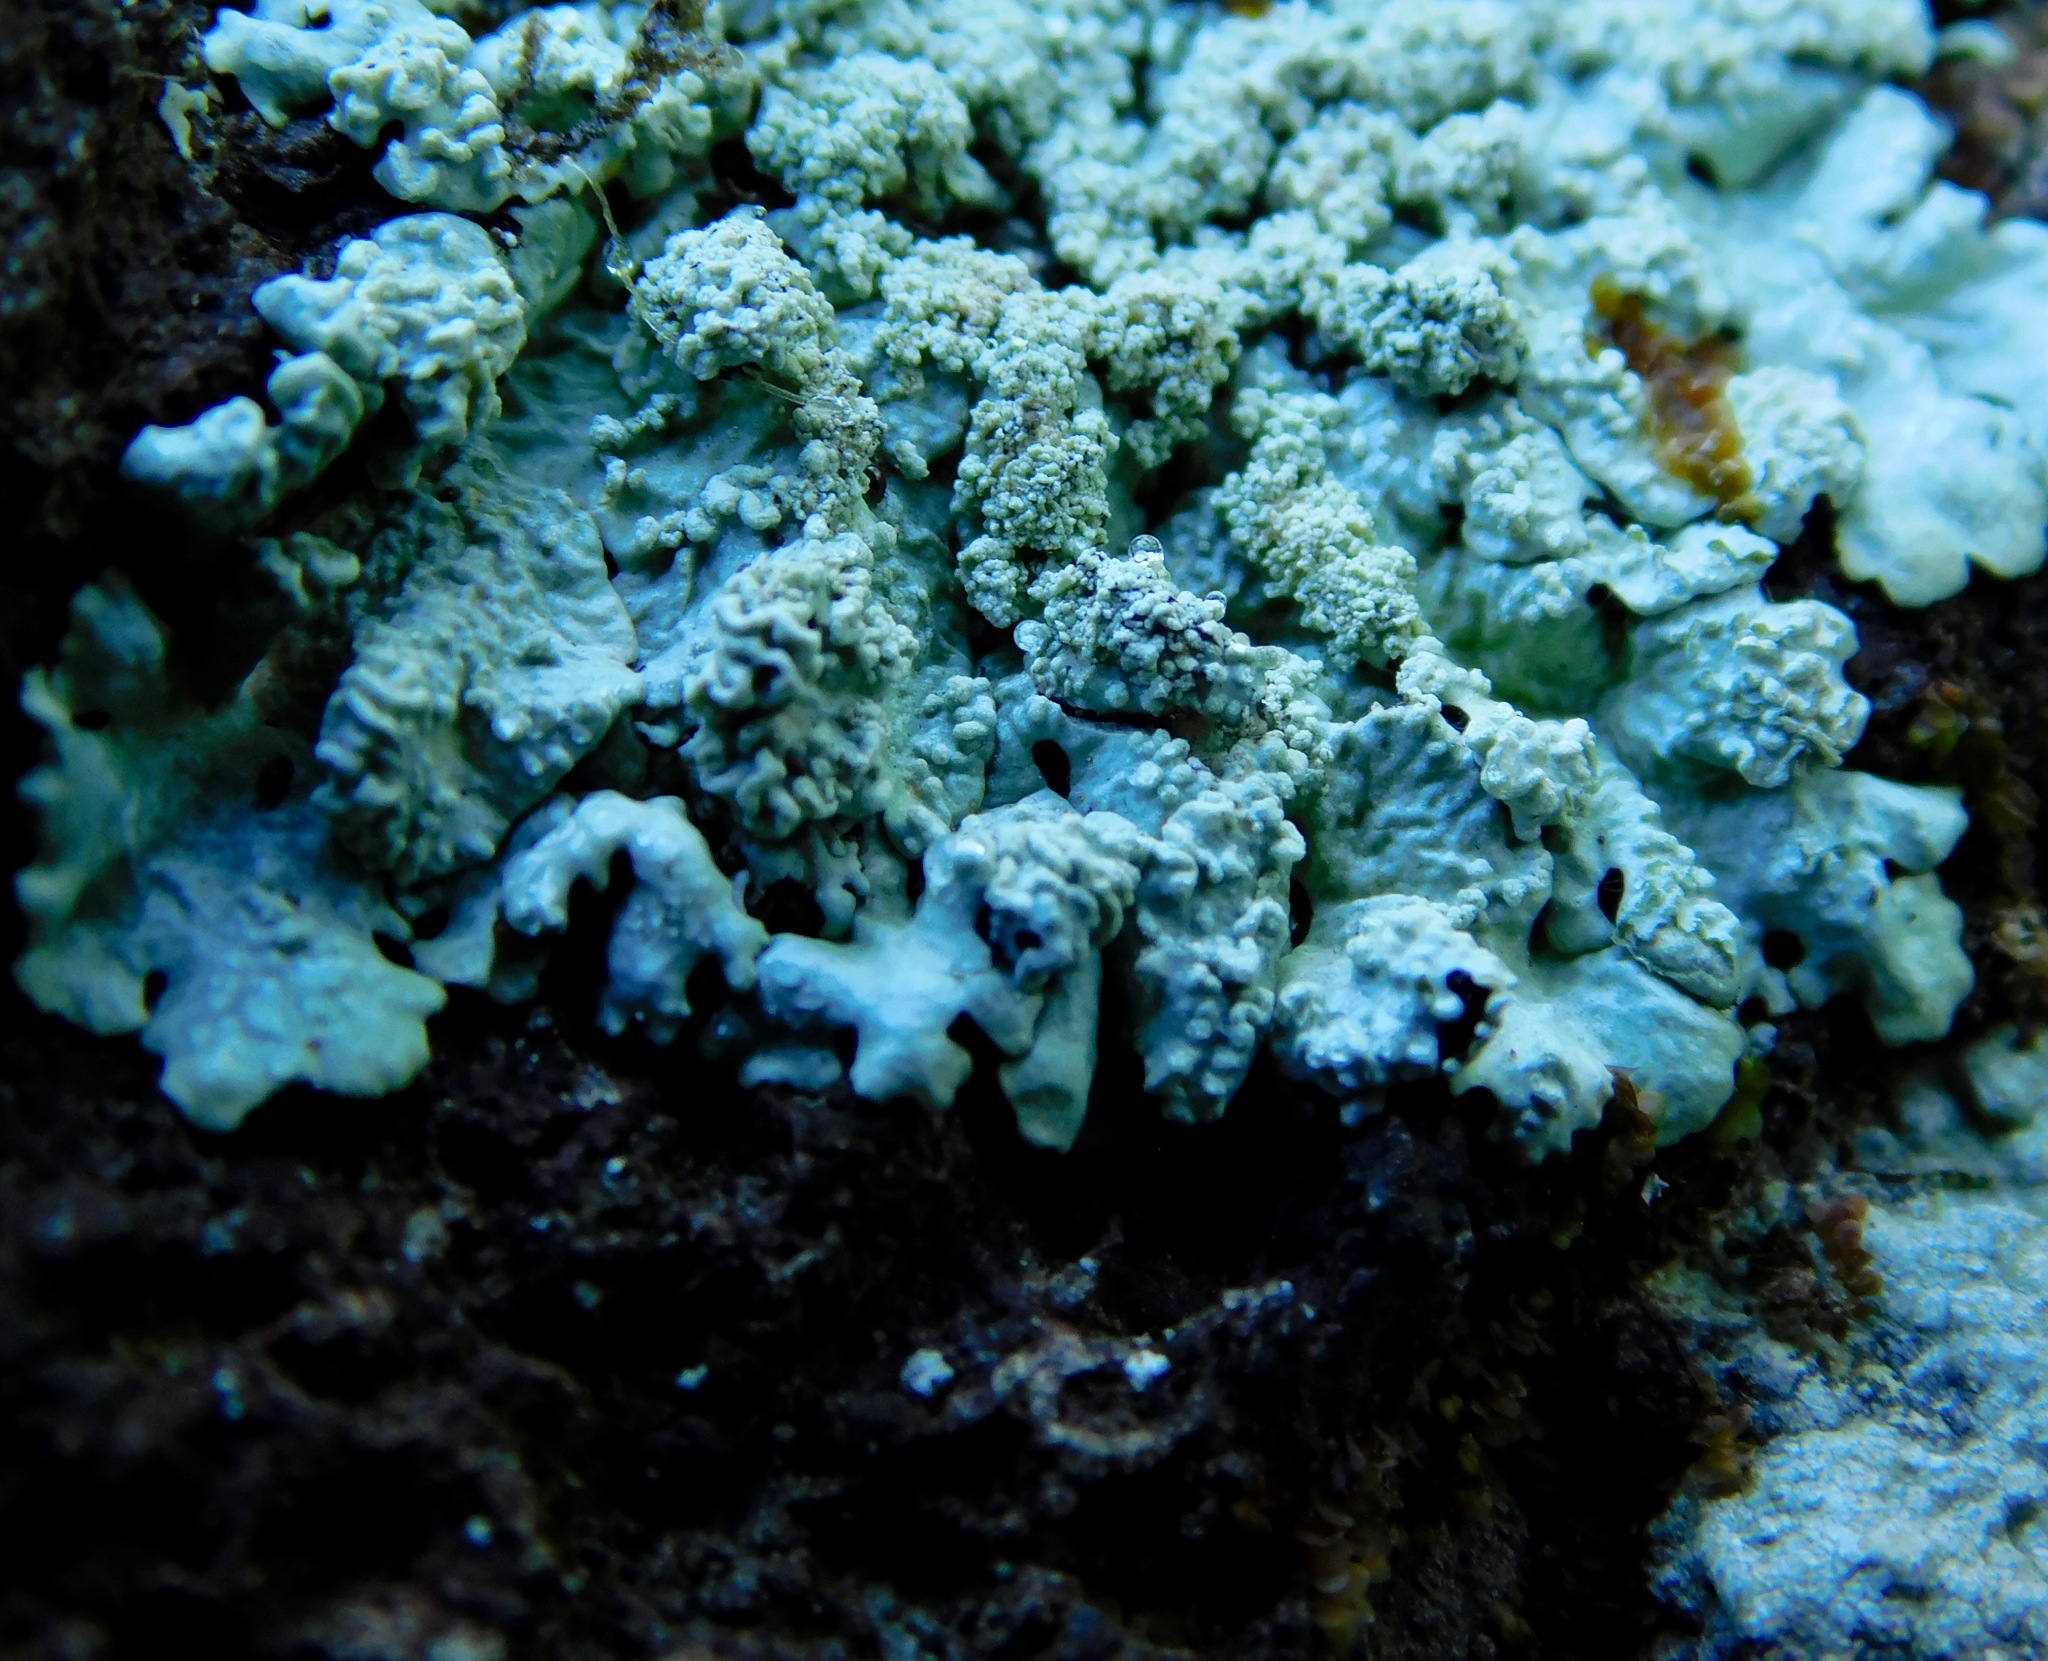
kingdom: Fungi
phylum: Ascomycota
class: Lecanoromycetes
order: Lecanorales
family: Parmeliaceae
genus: Myelochroa
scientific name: Myelochroa aurulenta
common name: Powdery axil-bristle lichen
